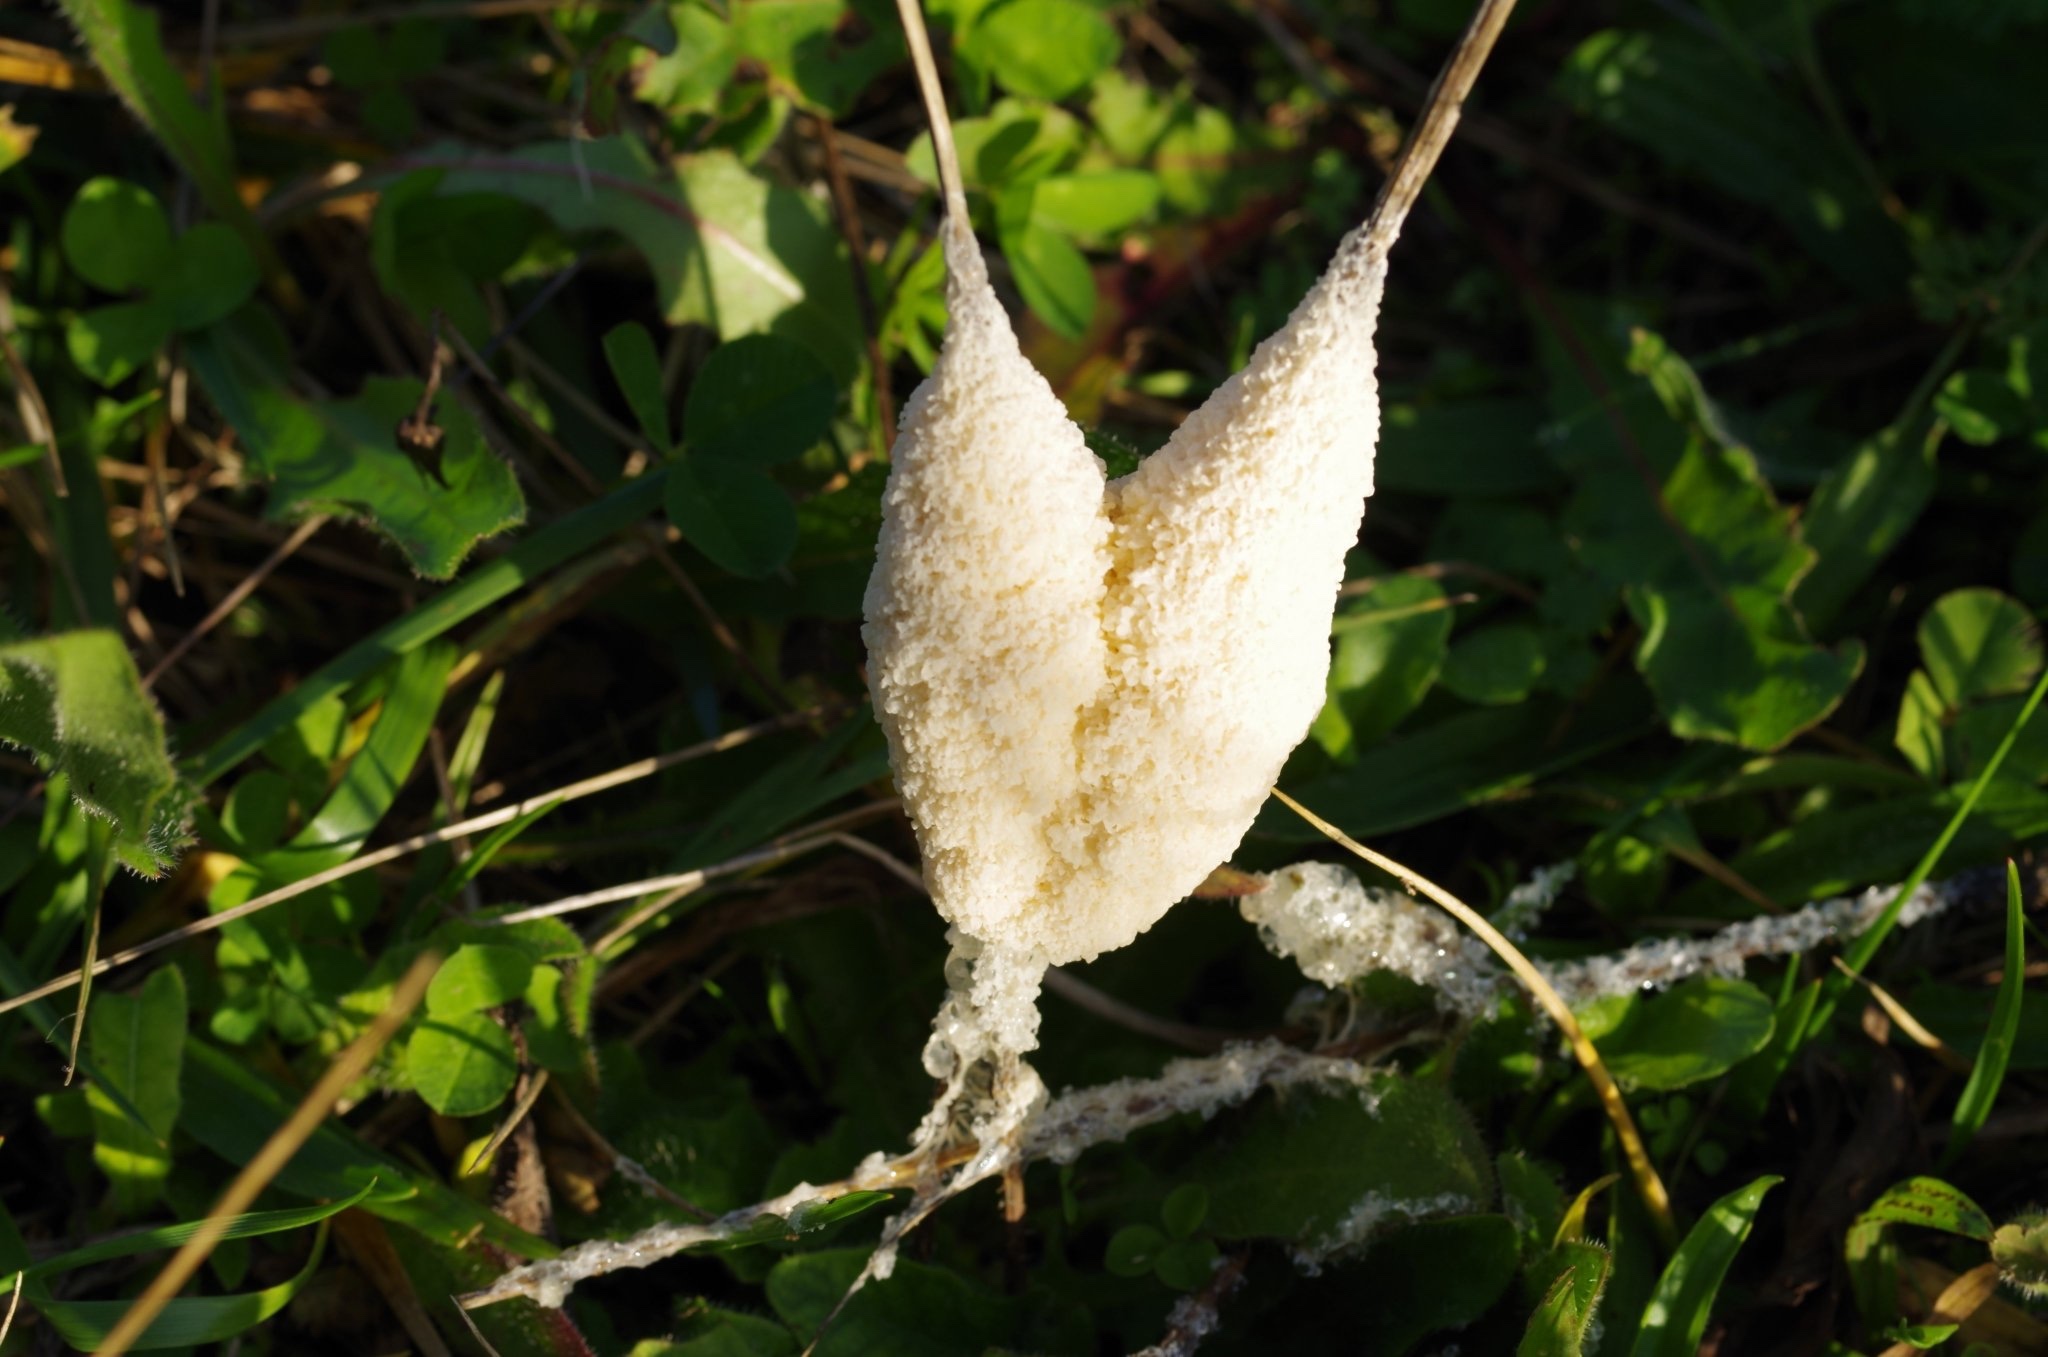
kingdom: Protozoa
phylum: Mycetozoa
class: Myxomycetes
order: Physarales
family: Physaraceae
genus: Didymium
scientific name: Didymium
